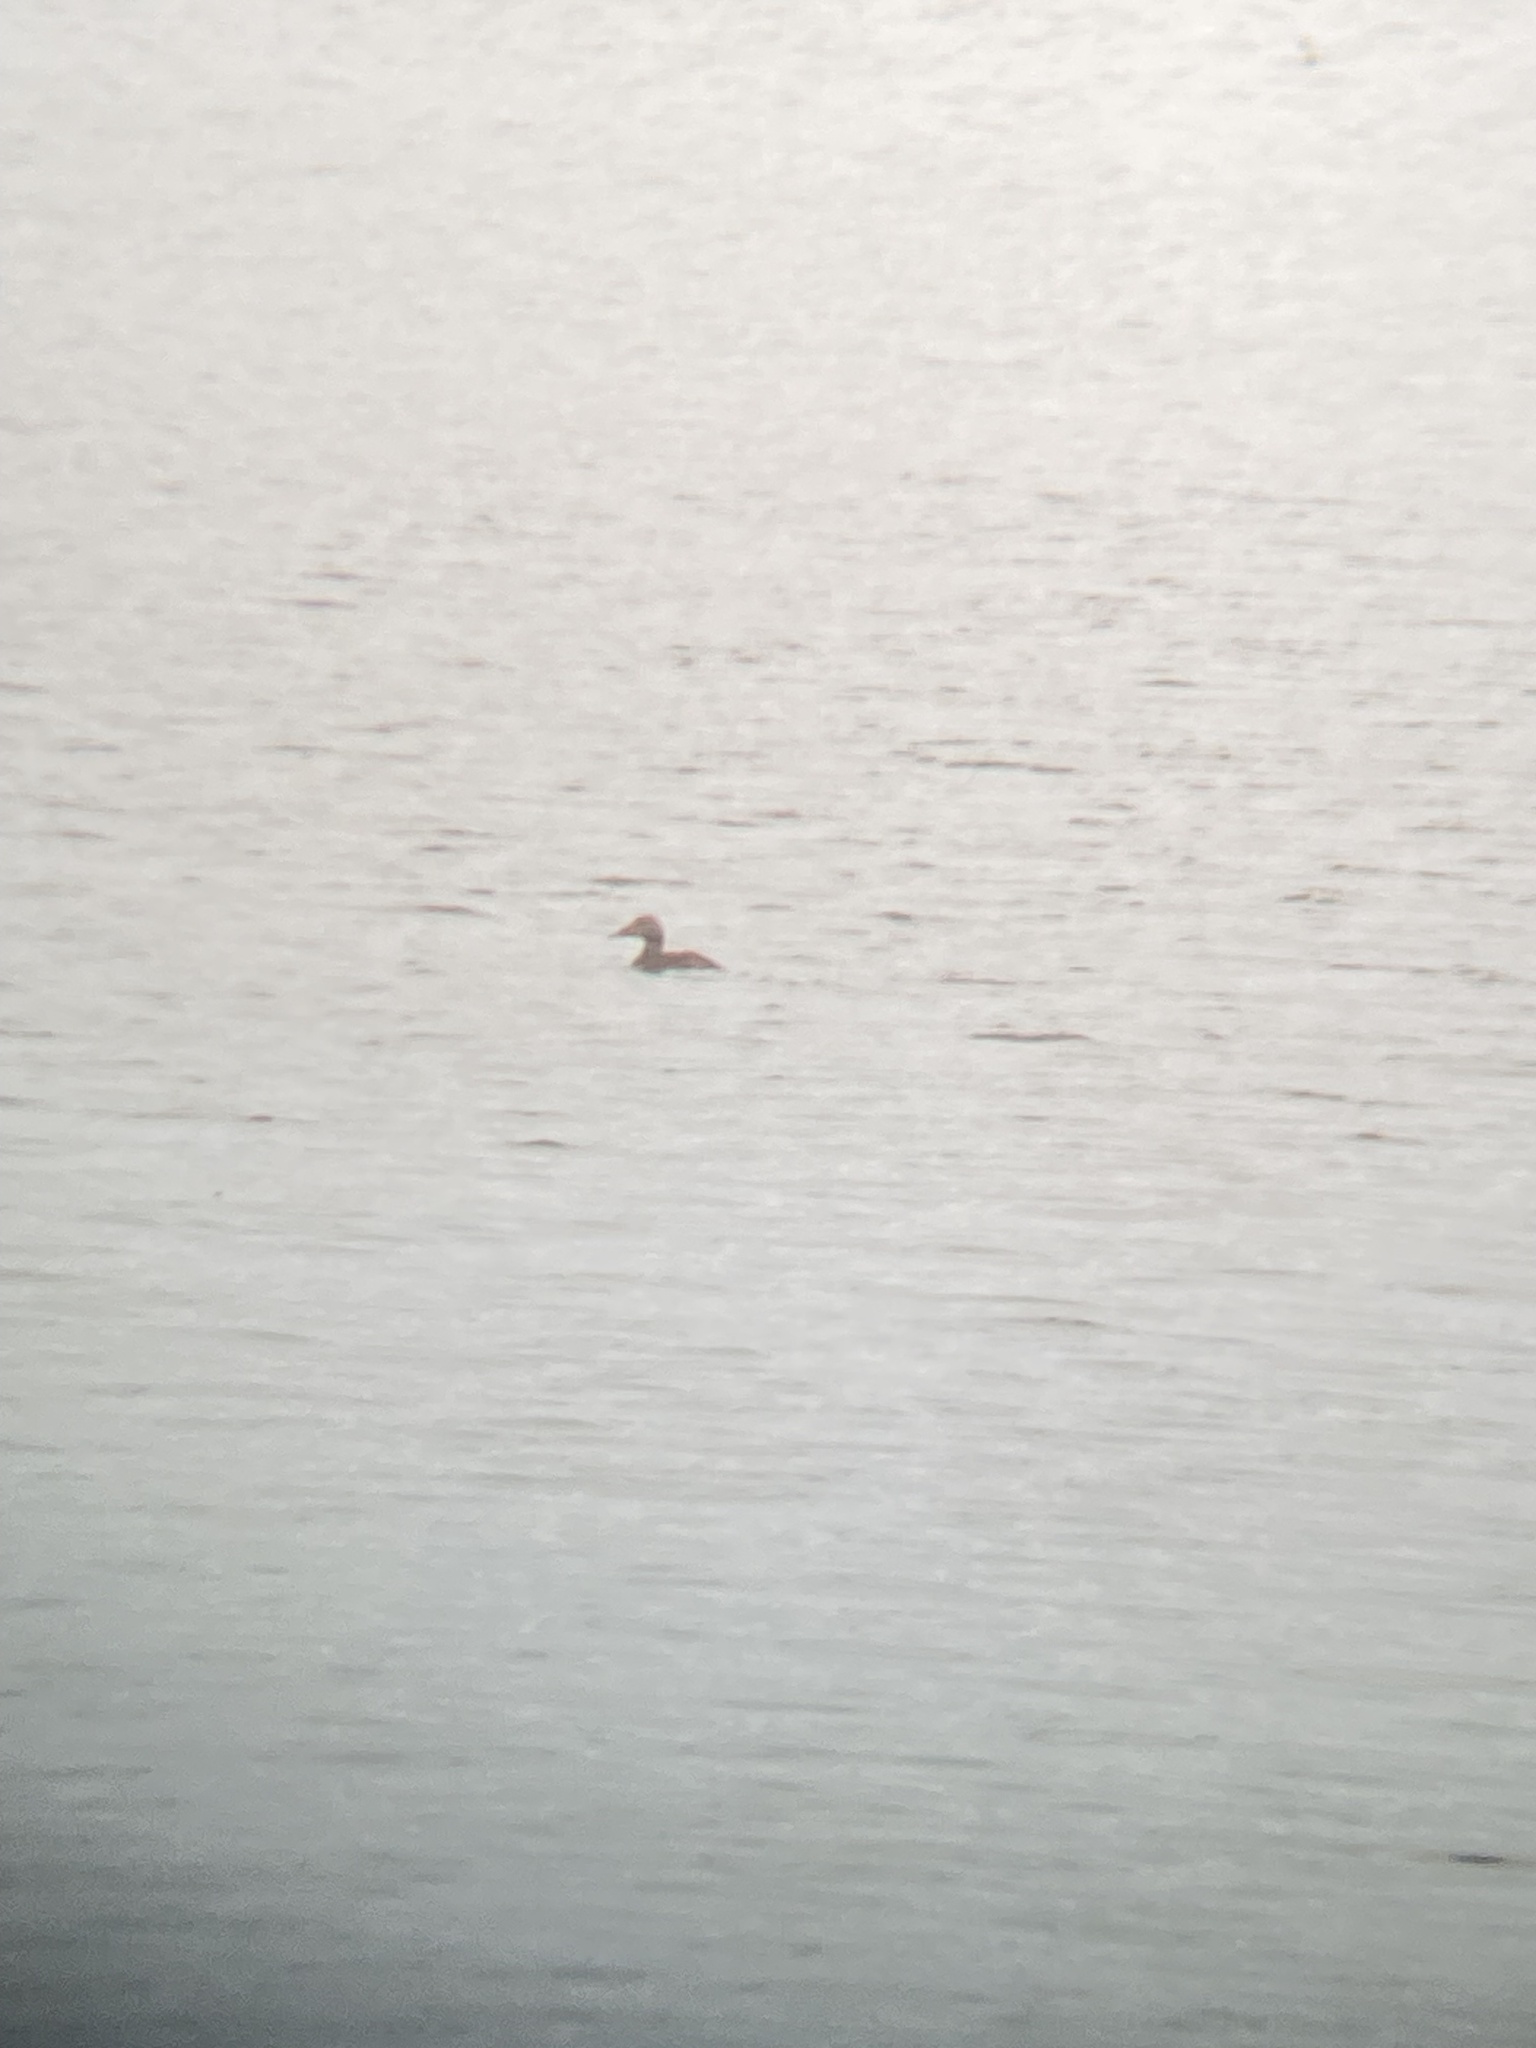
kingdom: Animalia
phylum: Chordata
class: Aves
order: Anseriformes
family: Anatidae
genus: Somateria
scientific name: Somateria mollissima
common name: Common eider
